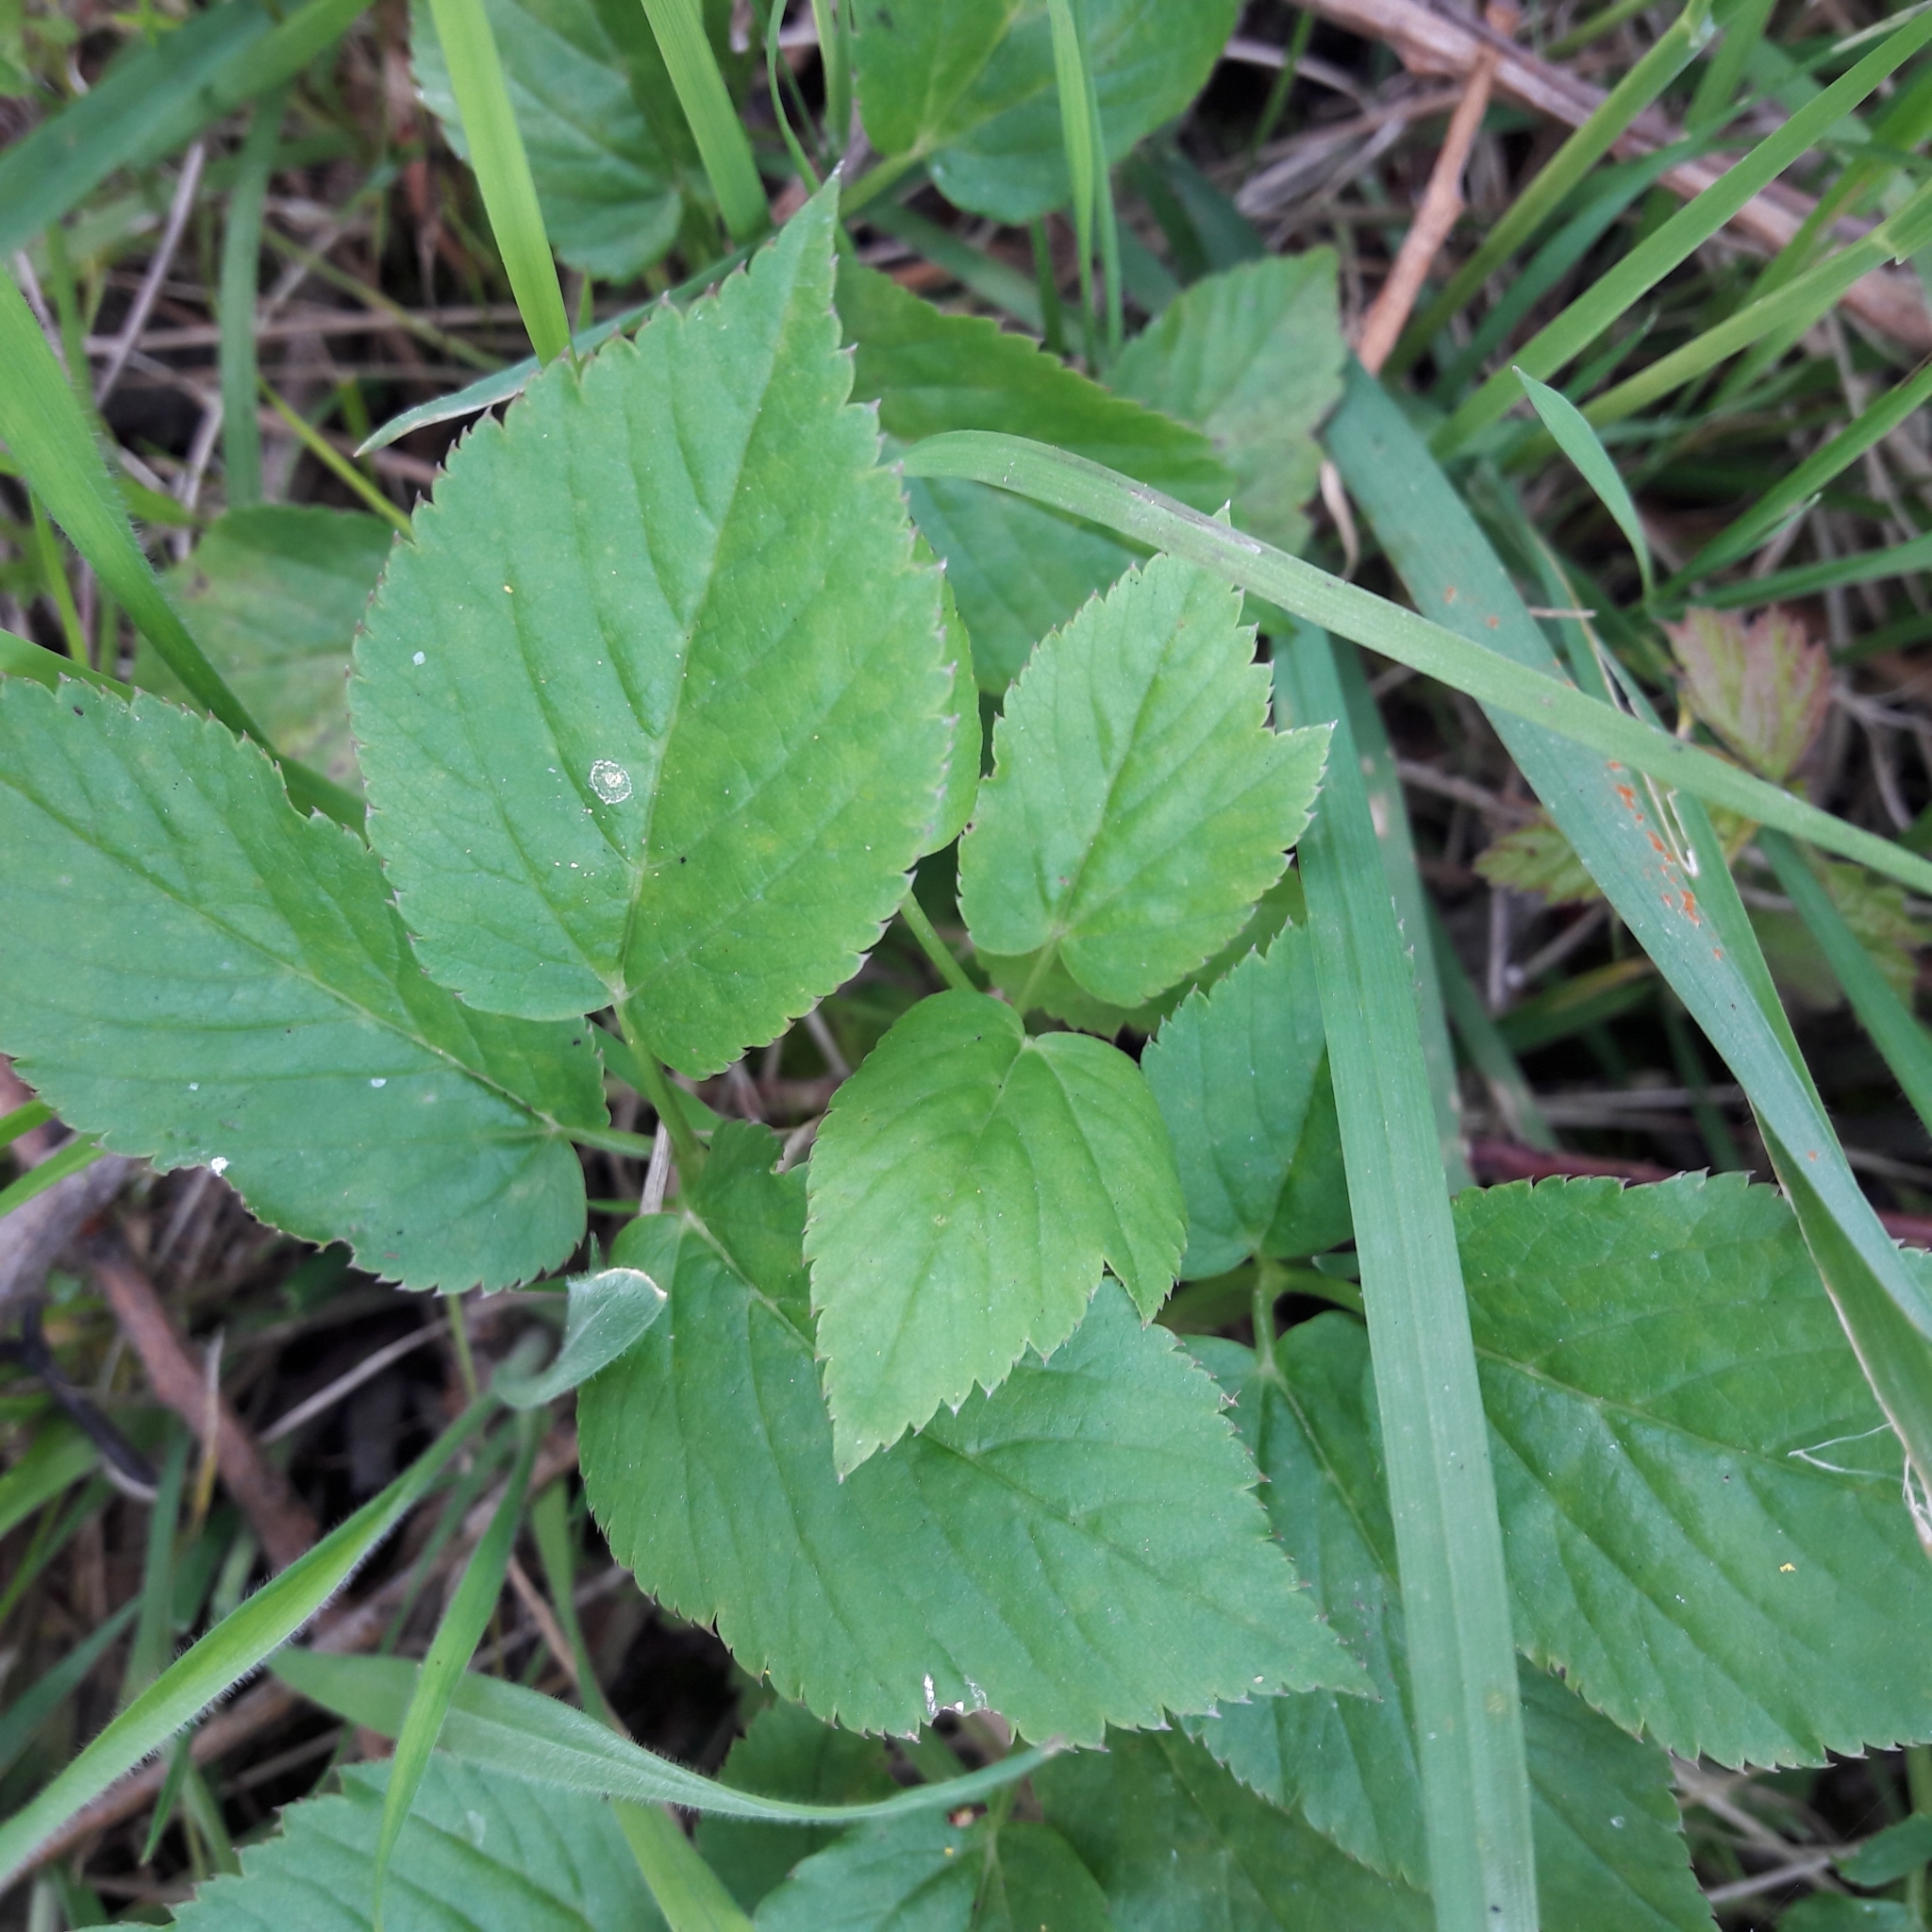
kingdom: Plantae
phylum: Tracheophyta
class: Magnoliopsida
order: Apiales
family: Apiaceae
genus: Aegopodium
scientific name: Aegopodium podagraria
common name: Ground-elder
